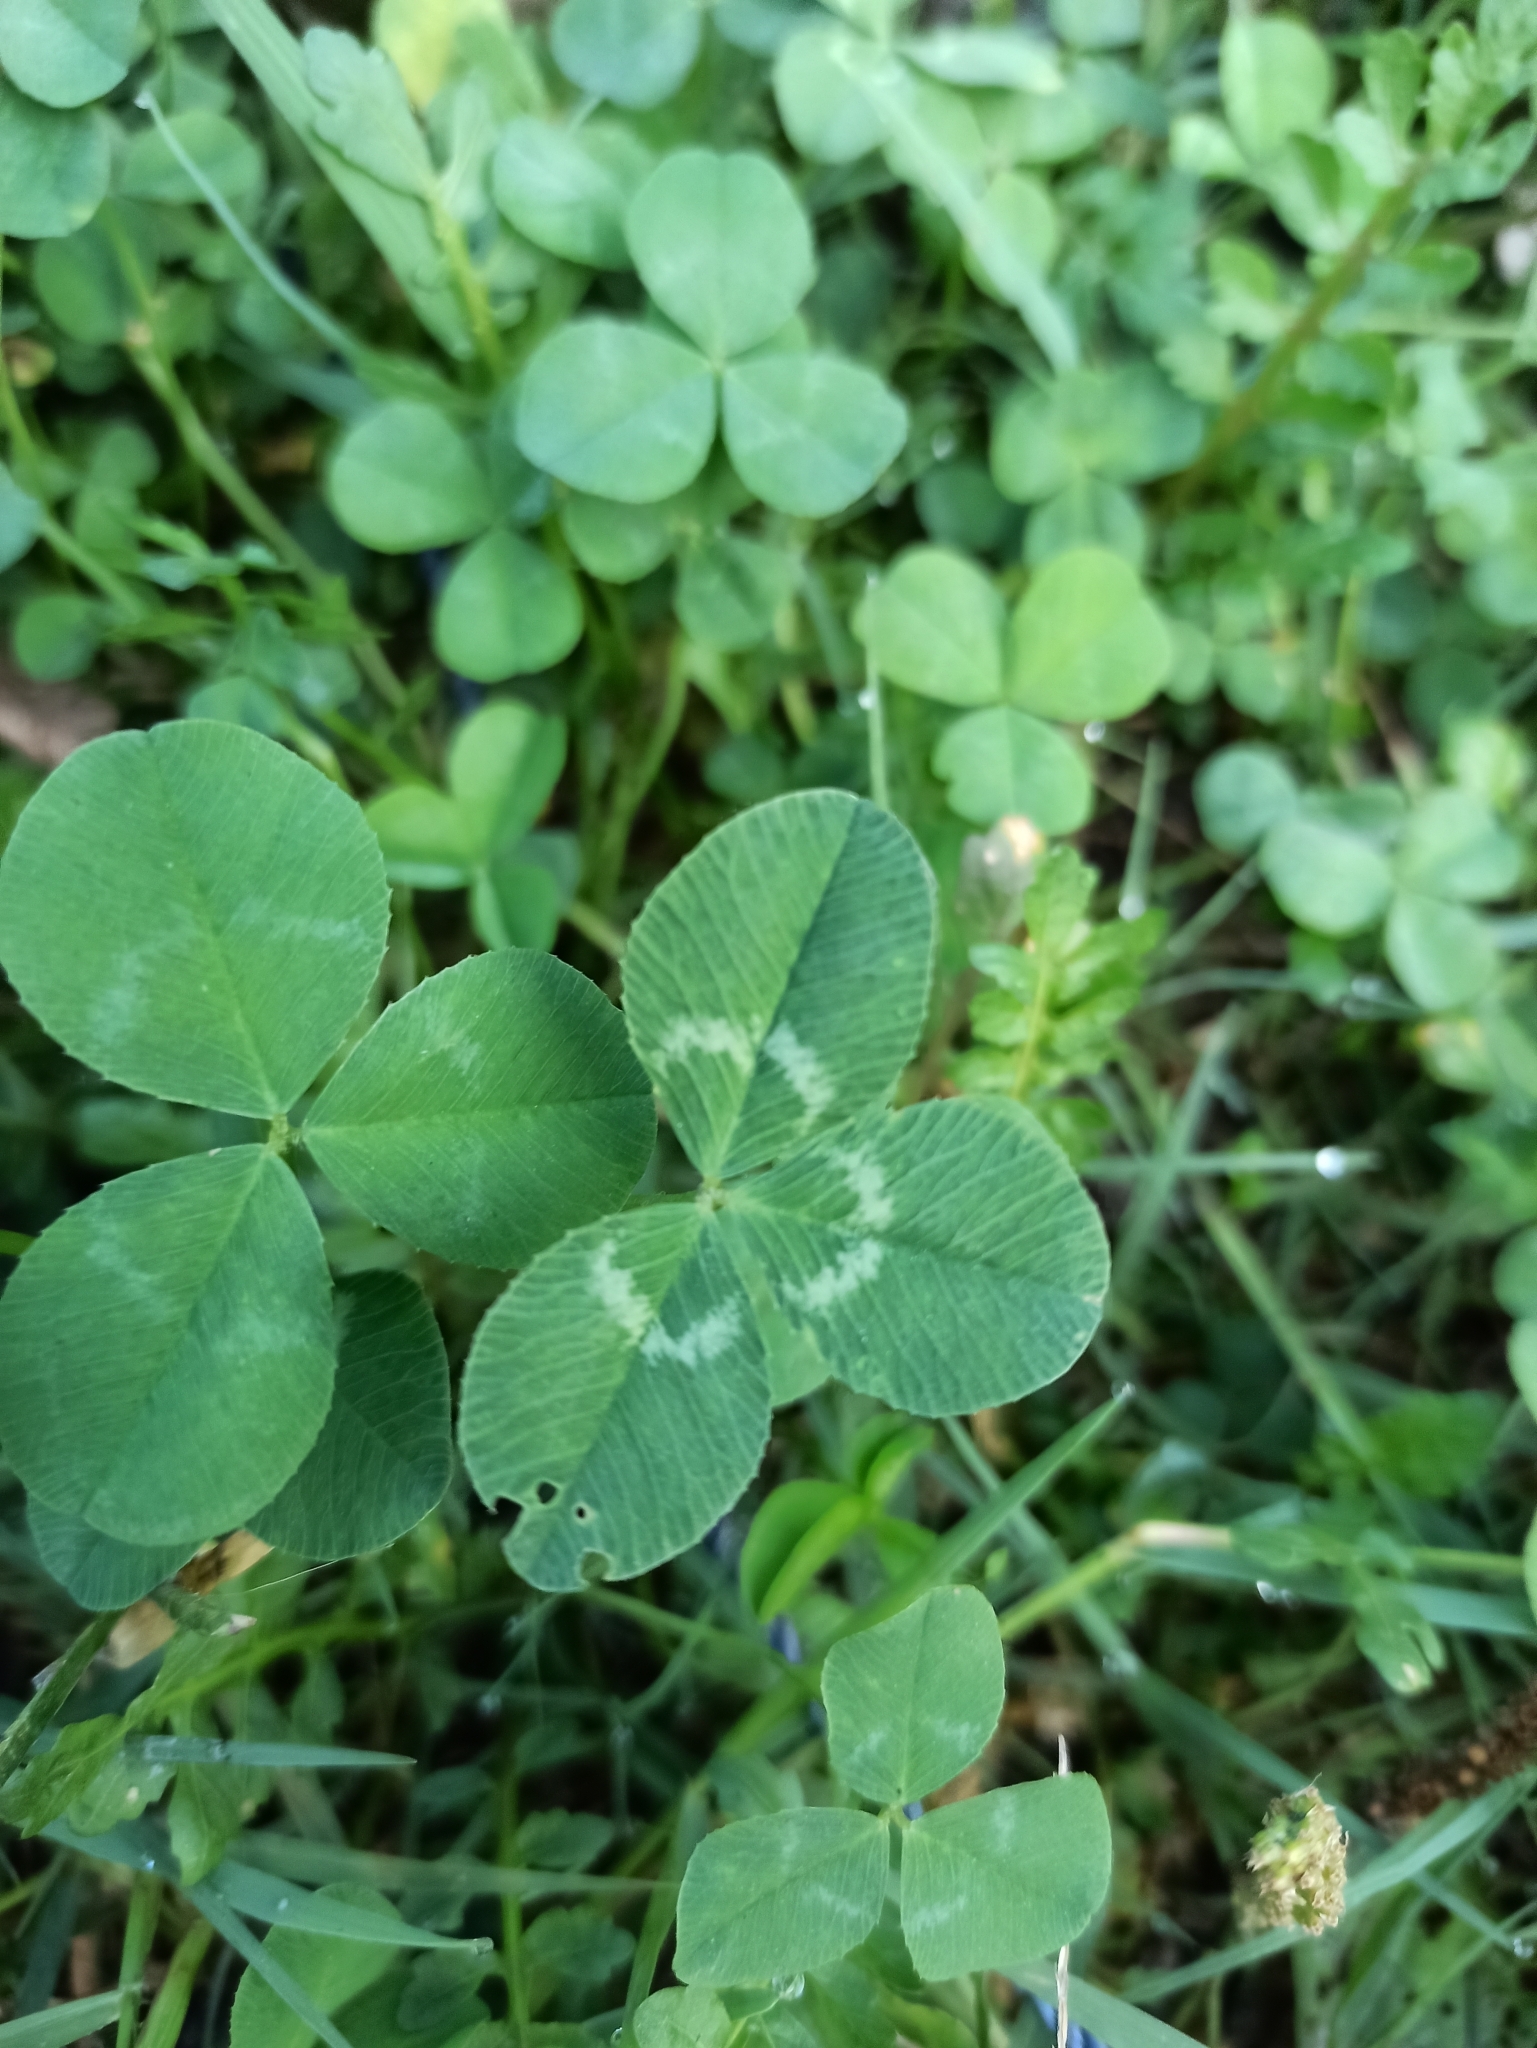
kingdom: Plantae
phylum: Tracheophyta
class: Magnoliopsida
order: Fabales
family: Fabaceae
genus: Trifolium
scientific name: Trifolium repens
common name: White clover
